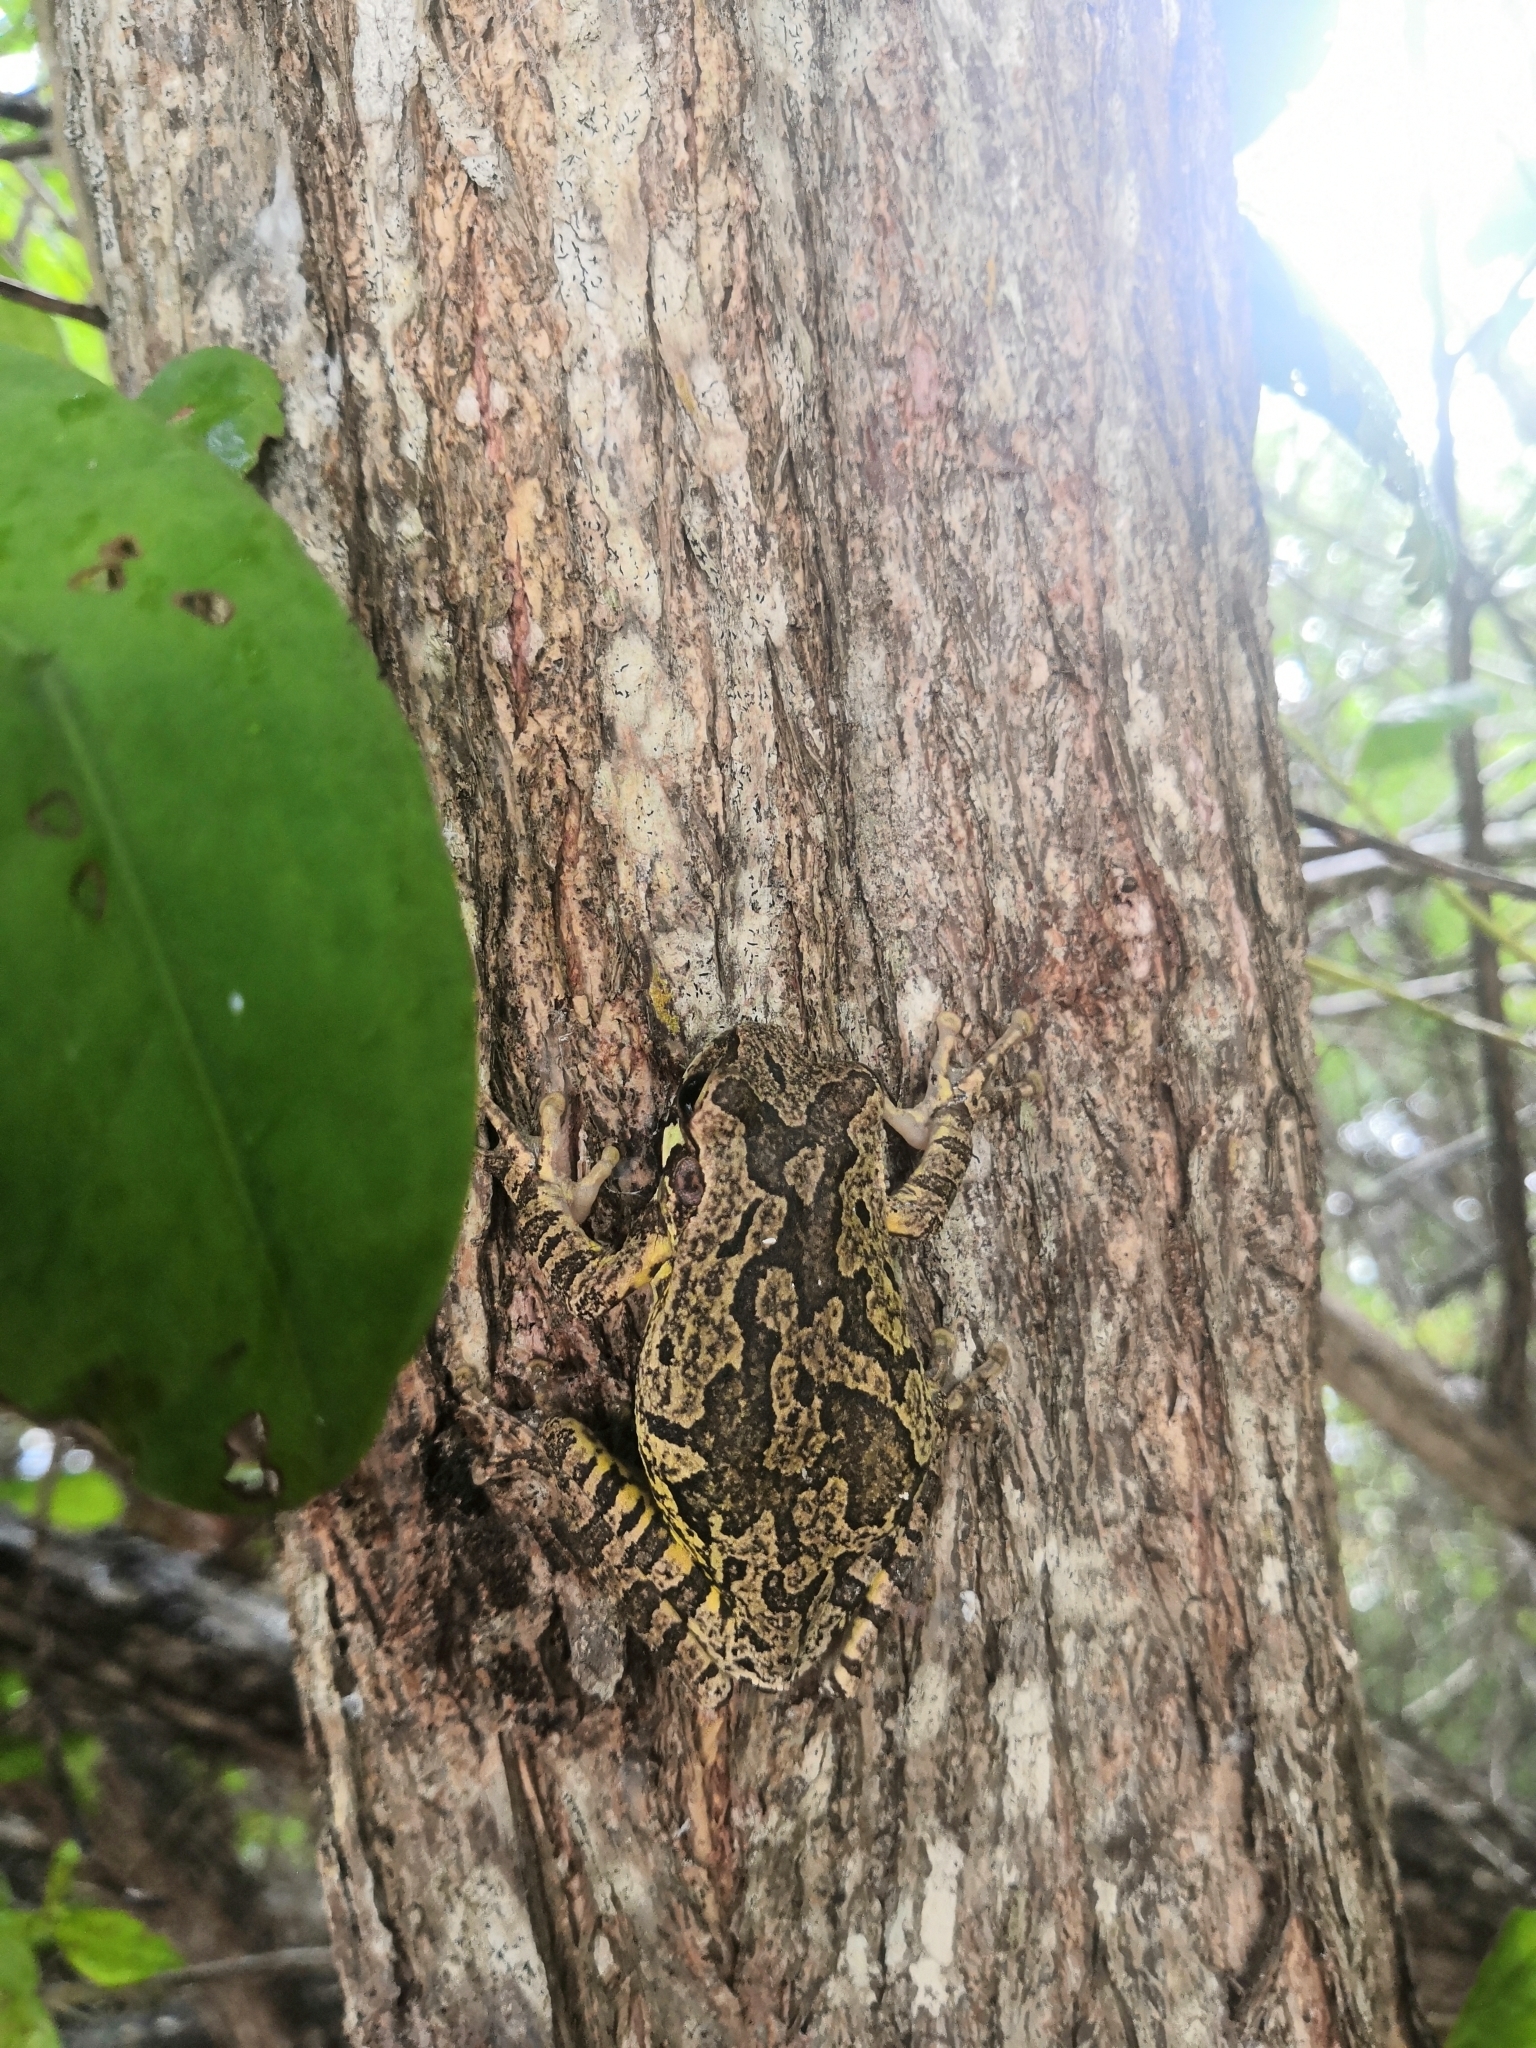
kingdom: Animalia
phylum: Chordata
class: Amphibia
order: Anura
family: Hylidae
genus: Smilisca
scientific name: Smilisca baudinii
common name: Mexican smilisca
